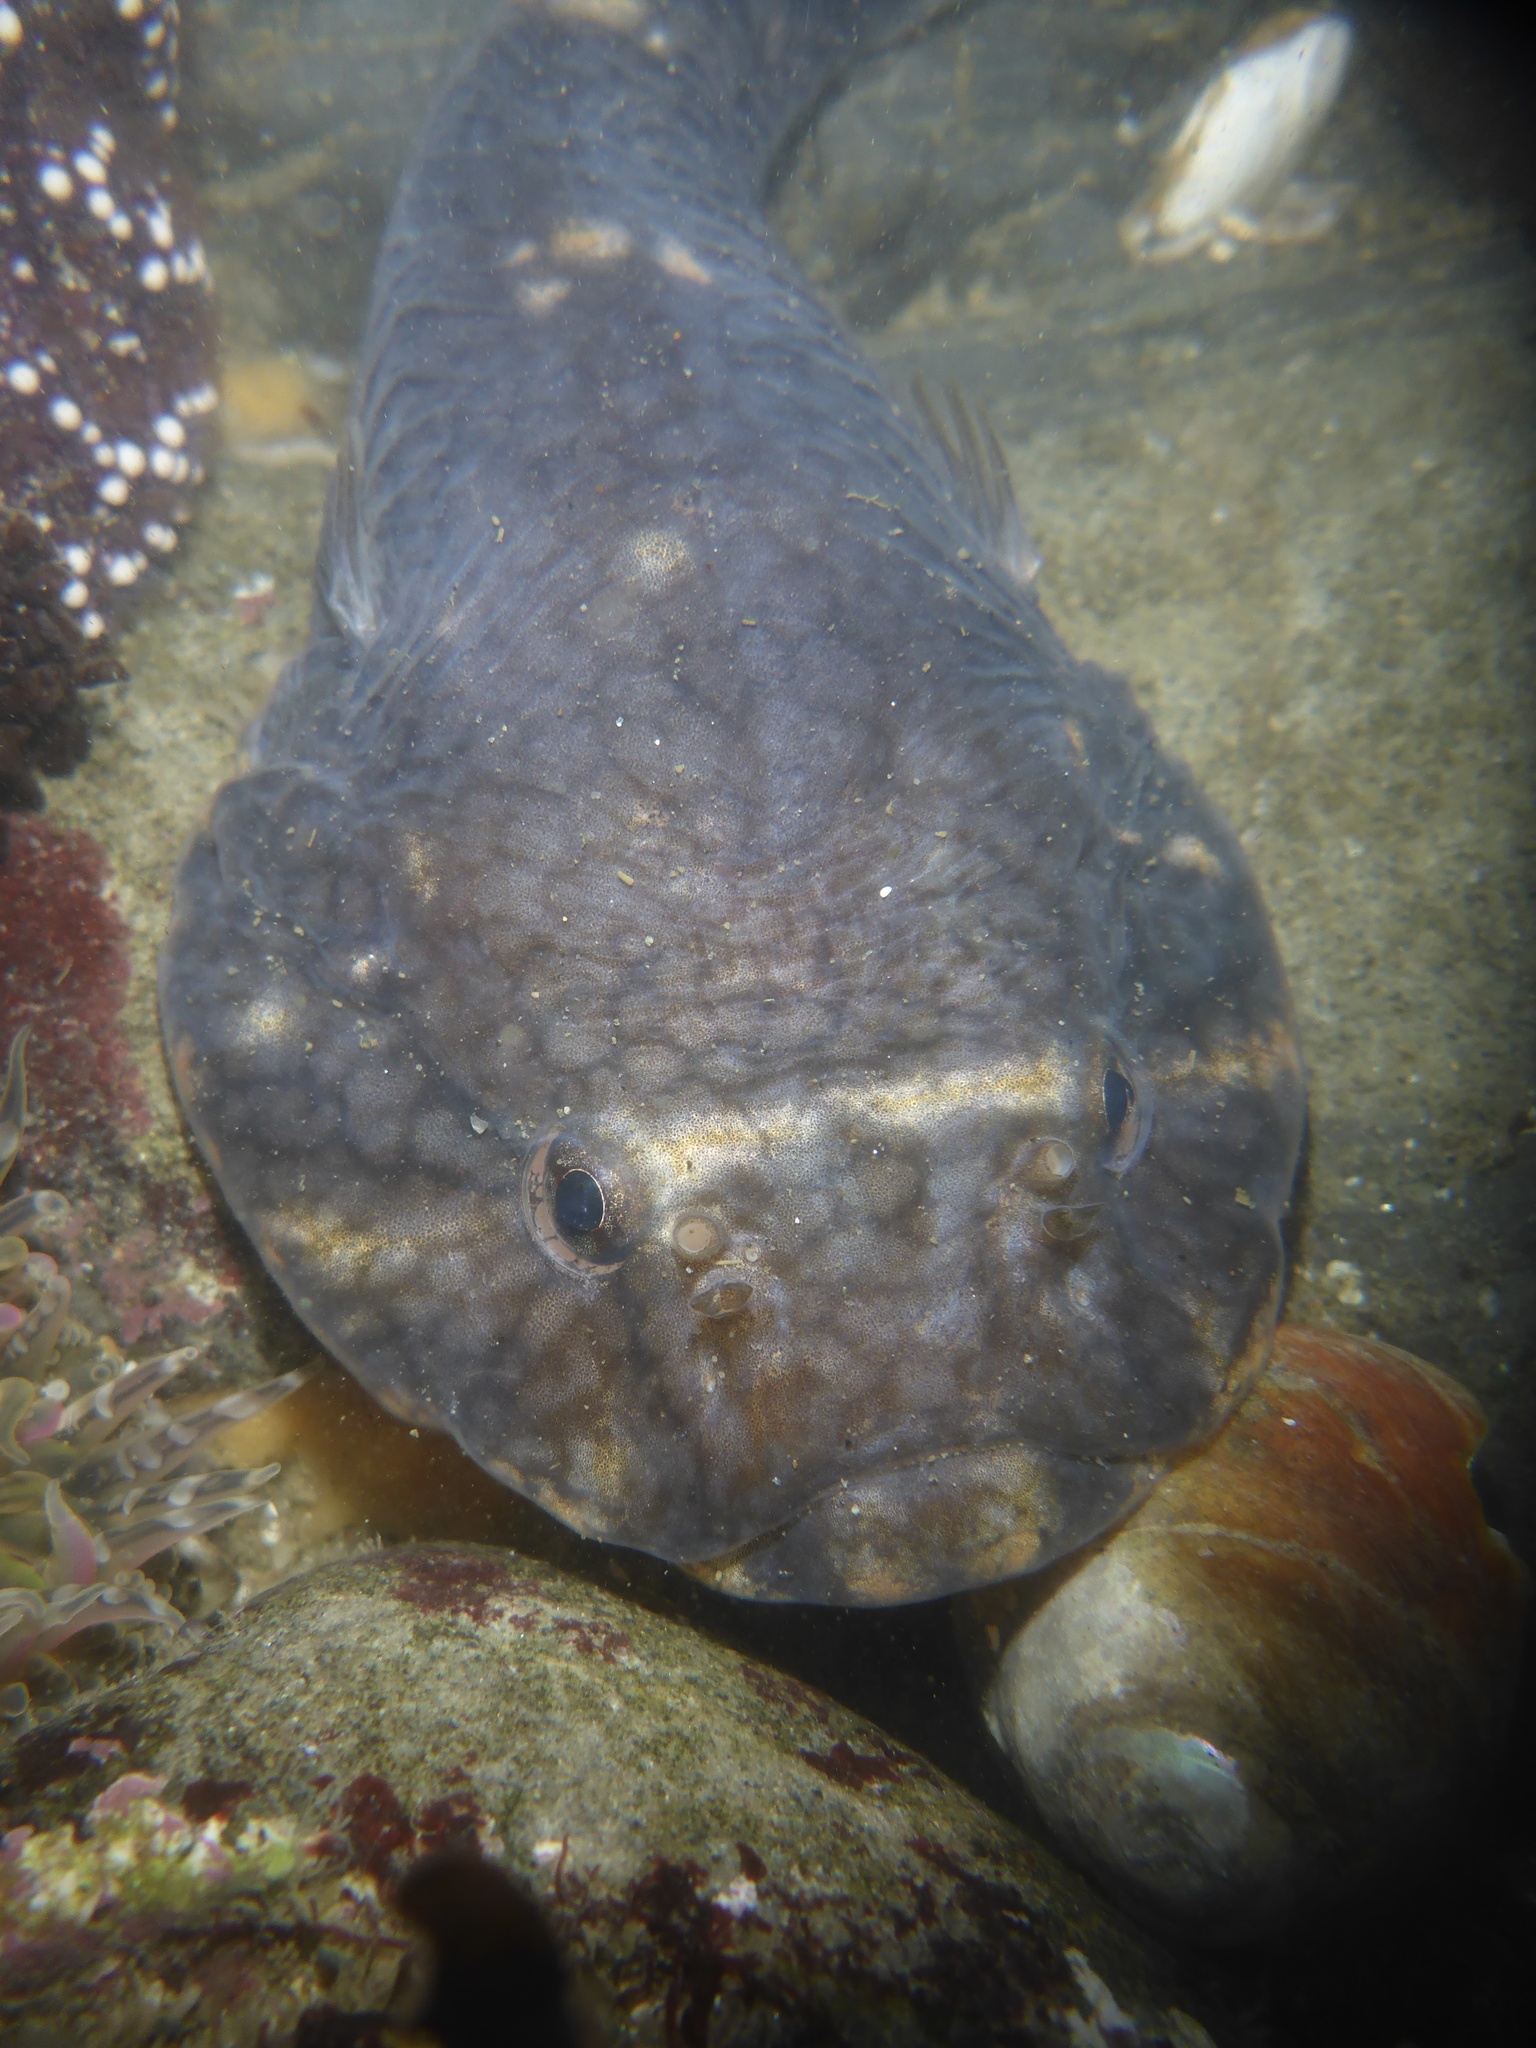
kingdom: Animalia
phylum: Chordata
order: Gobiesociformes
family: Gobiesocidae
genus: Gobiesox
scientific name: Gobiesox maeandricus
